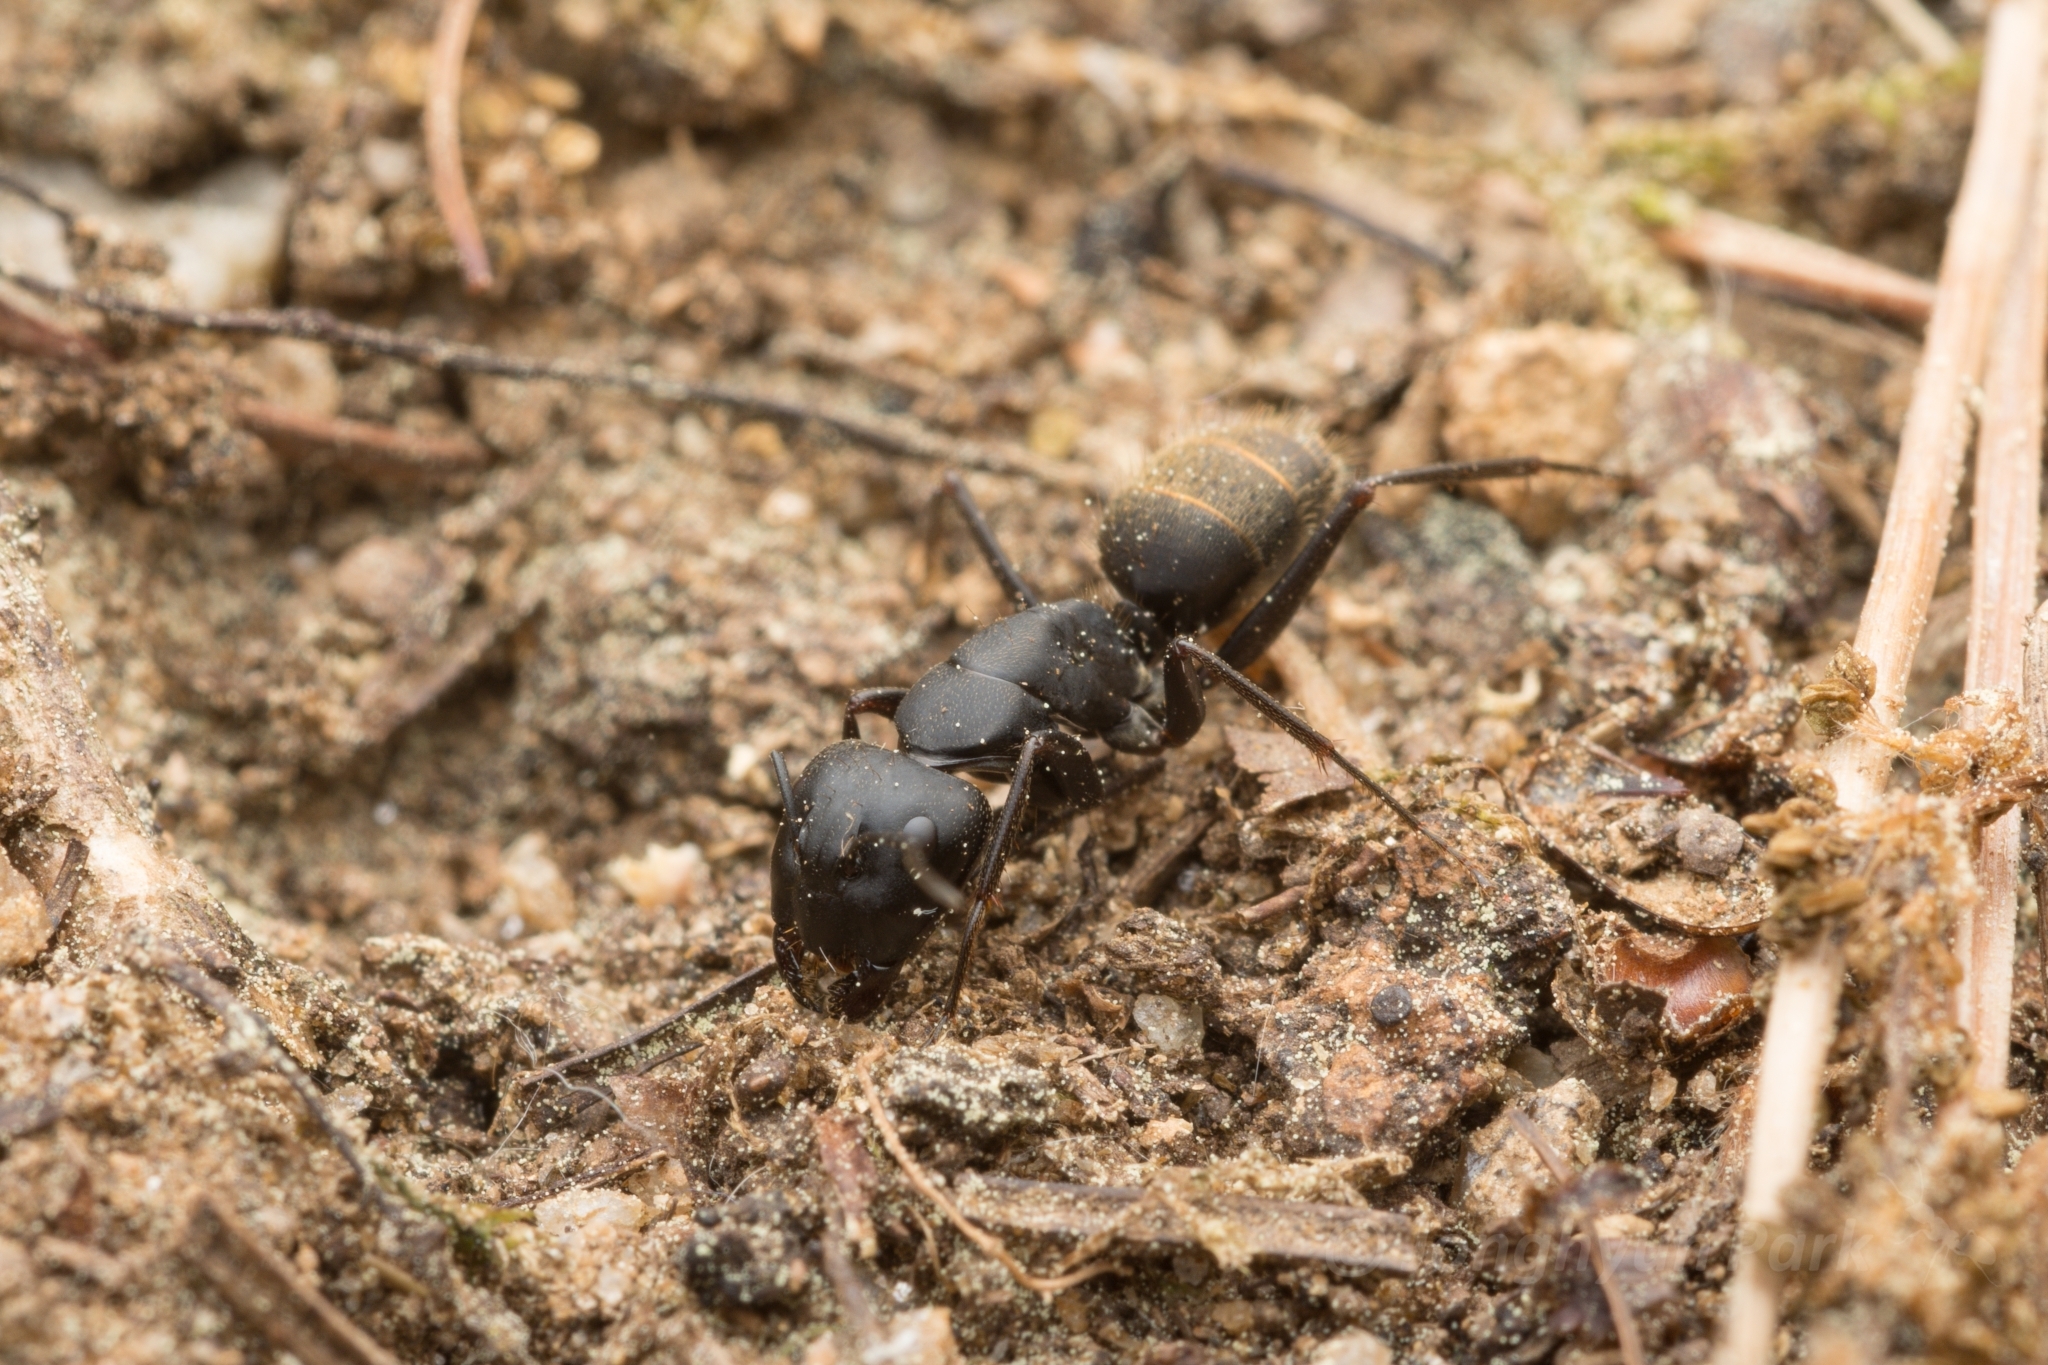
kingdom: Animalia
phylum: Arthropoda
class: Insecta
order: Hymenoptera
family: Formicidae
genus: Camponotus
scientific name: Camponotus japonicus
